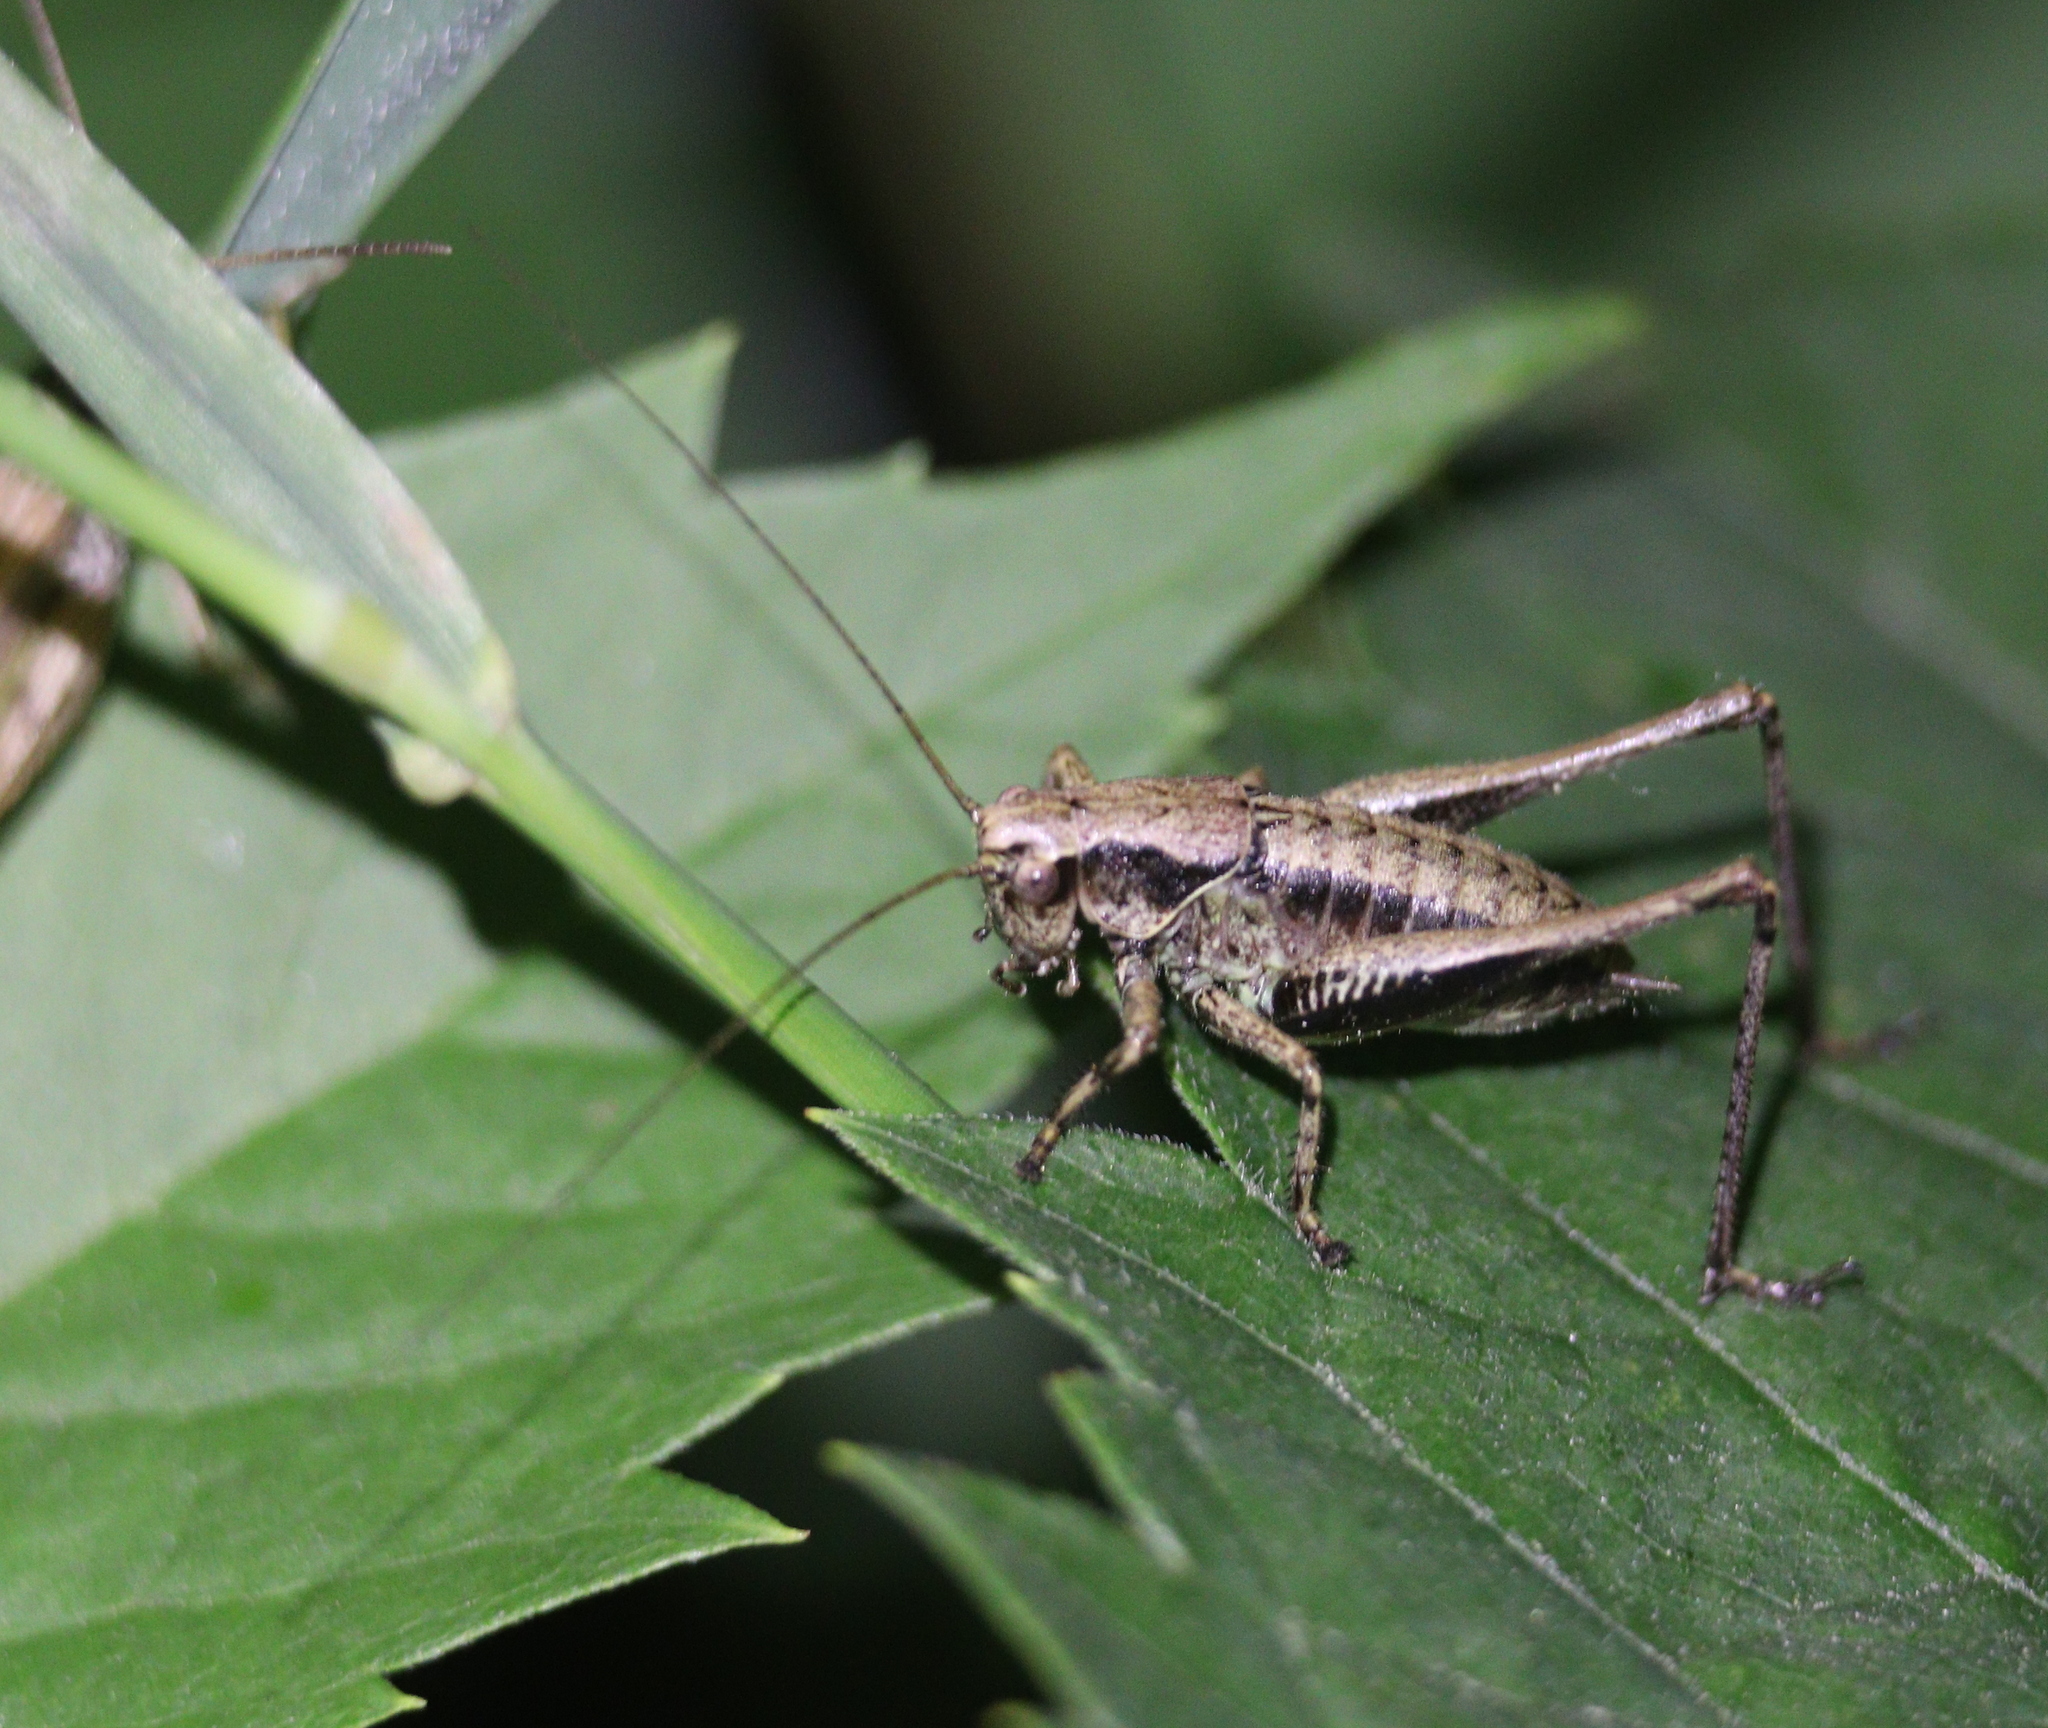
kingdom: Animalia
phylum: Arthropoda
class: Insecta
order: Orthoptera
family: Tettigoniidae
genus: Pholidoptera
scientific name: Pholidoptera griseoaptera
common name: Dark bush-cricket
